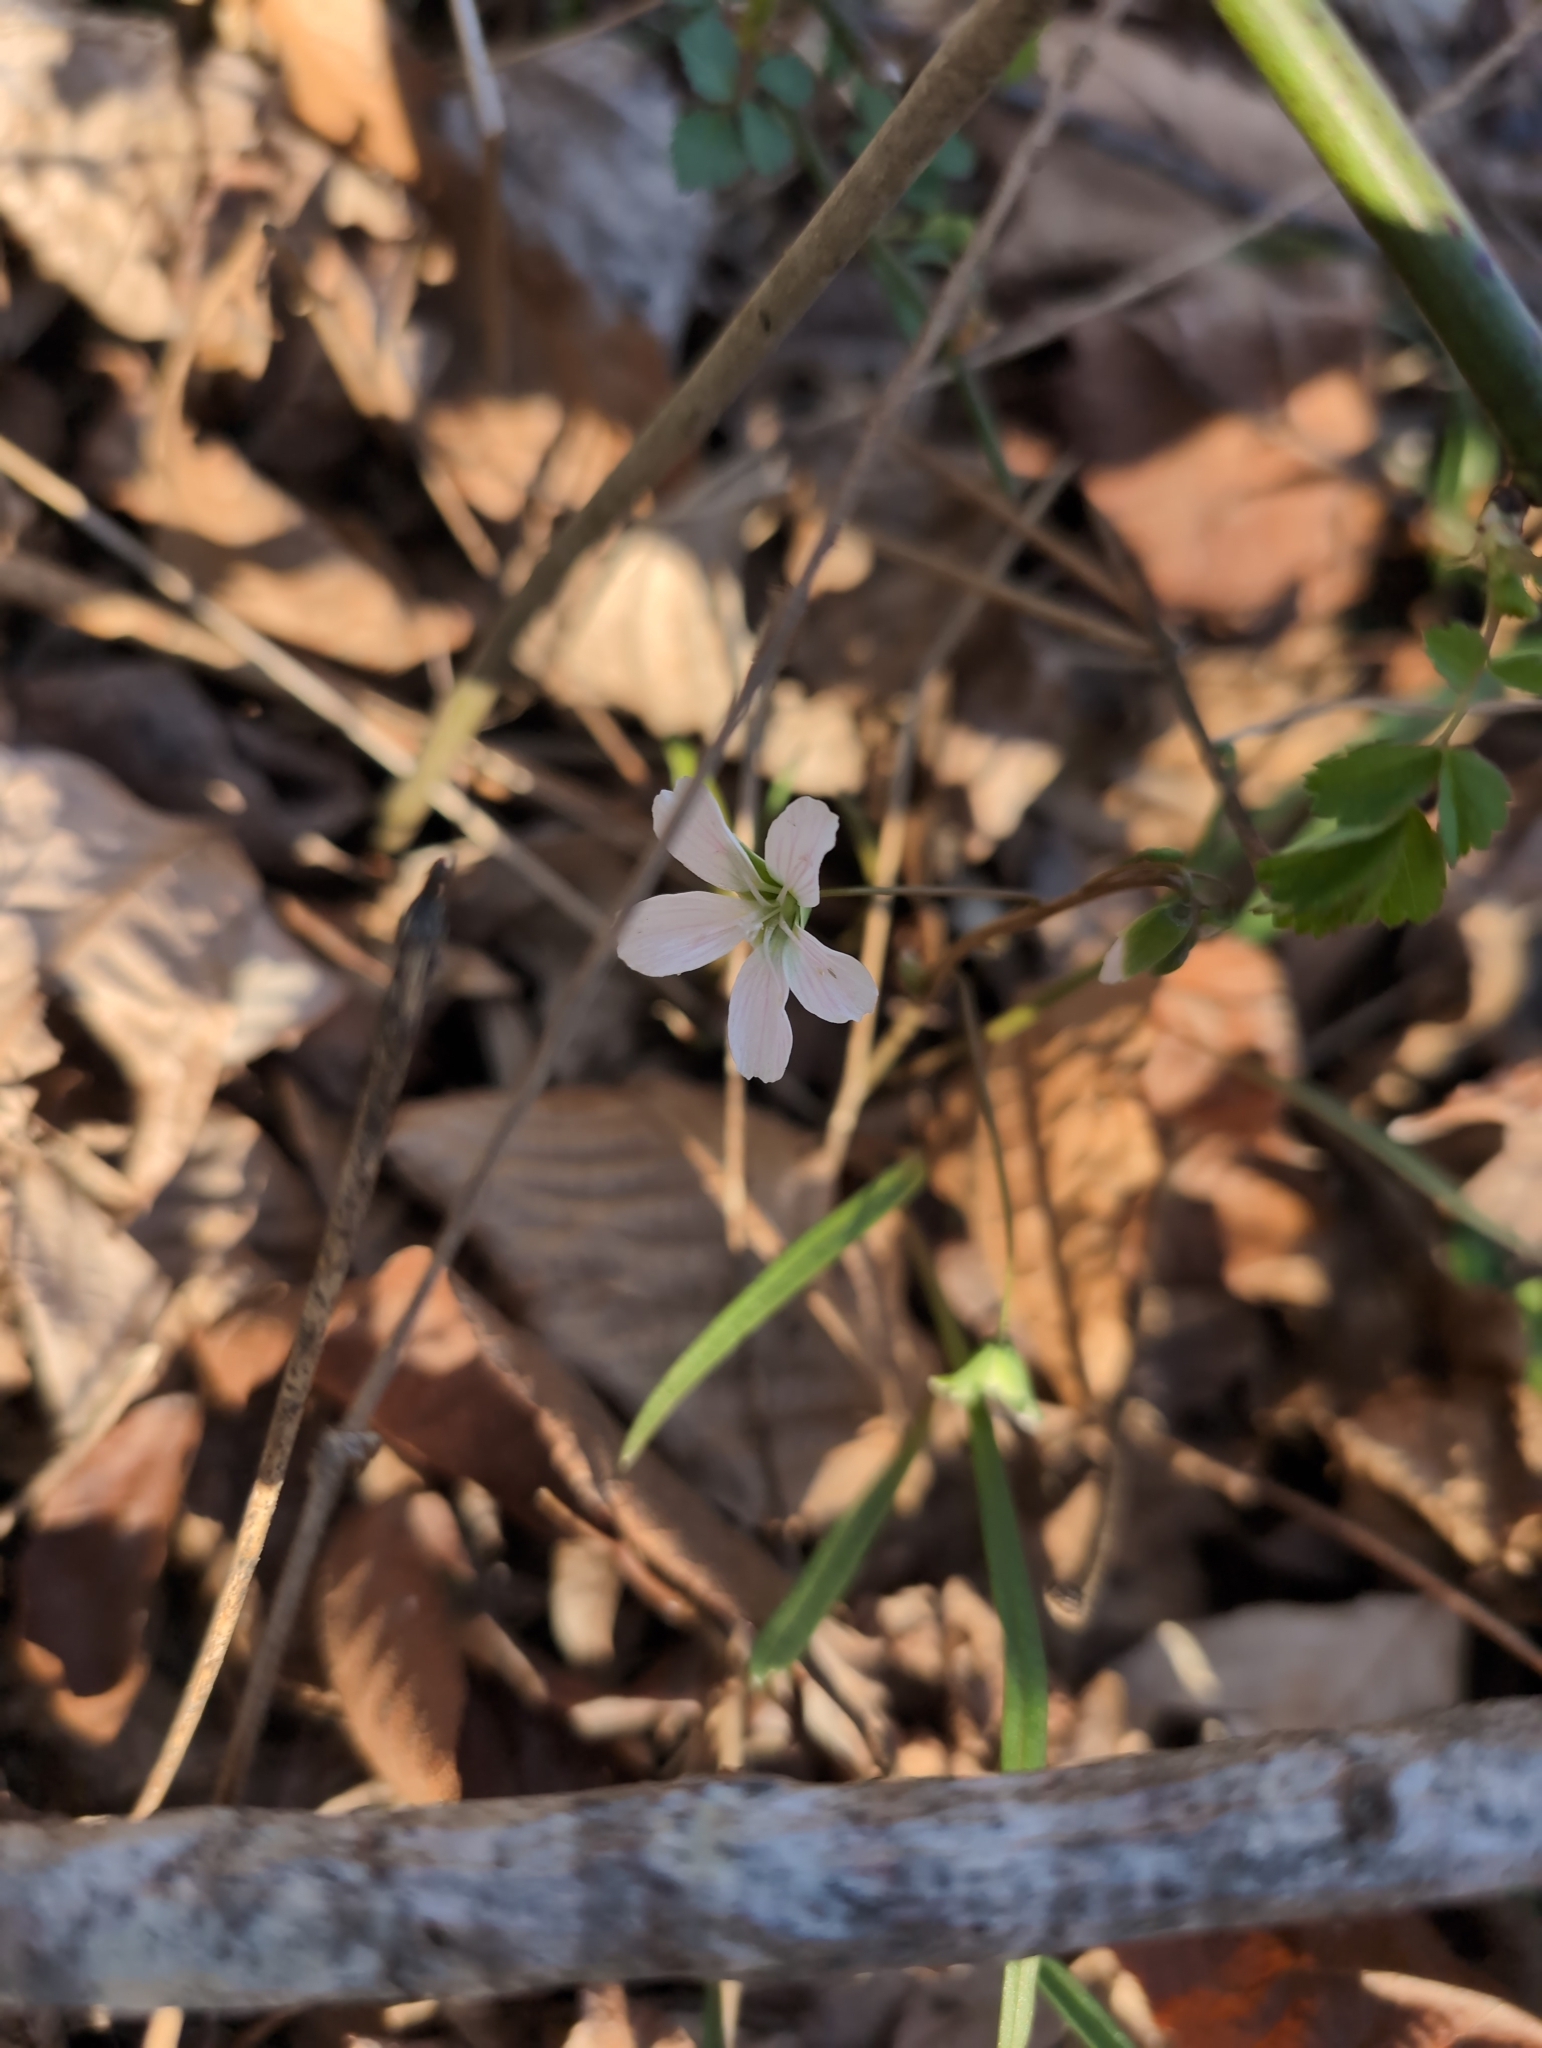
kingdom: Plantae
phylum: Tracheophyta
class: Magnoliopsida
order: Caryophyllales
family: Montiaceae
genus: Claytonia
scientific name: Claytonia virginica
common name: Virginia springbeauty
